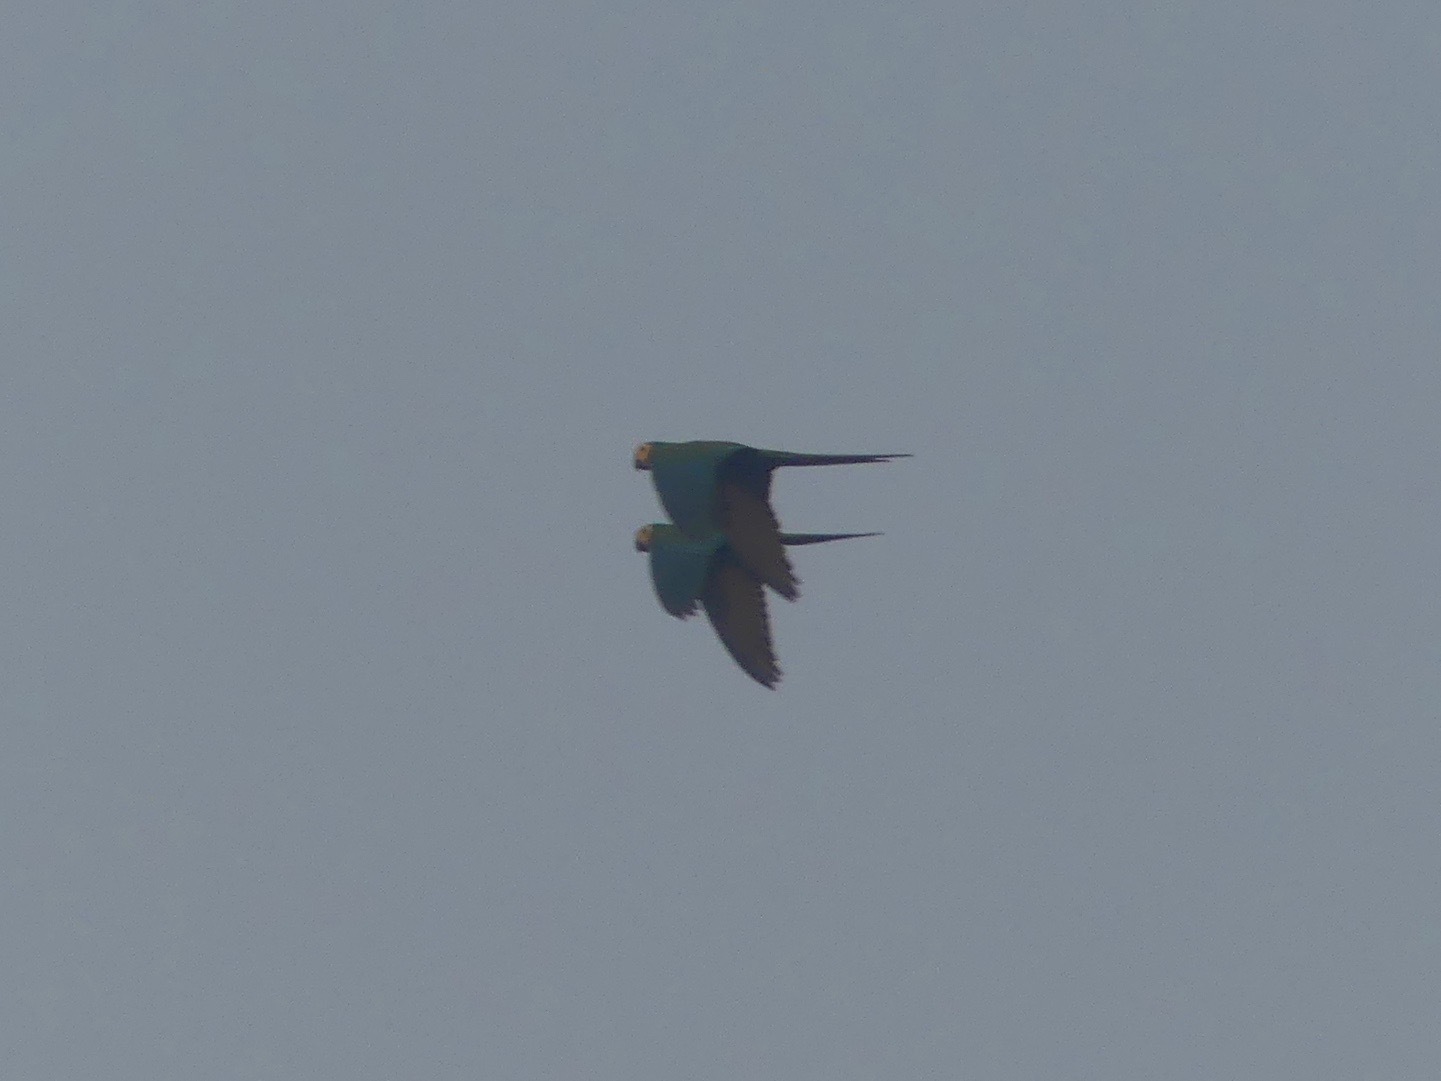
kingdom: Animalia
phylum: Chordata
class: Aves
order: Psittaciformes
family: Psittacidae
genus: Orthopsittaca
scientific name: Orthopsittaca manilata
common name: Red-bellied macaw
